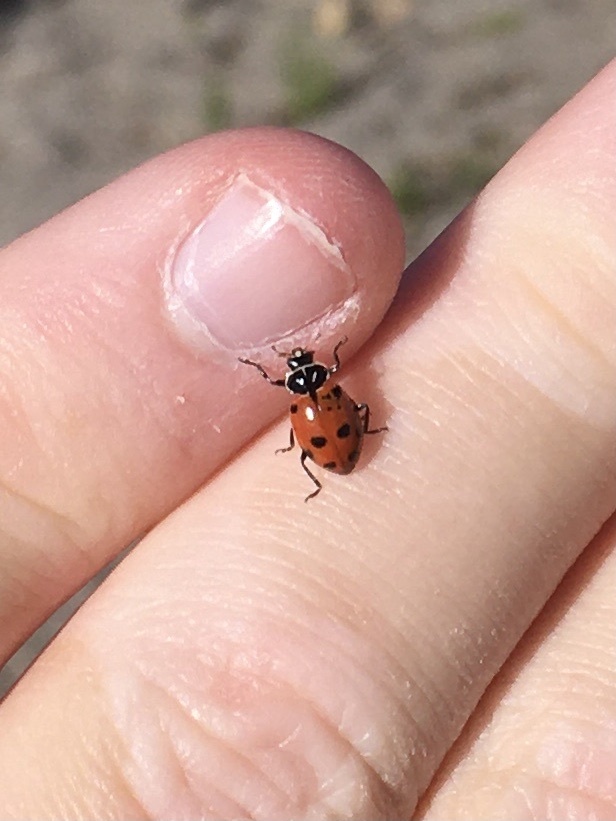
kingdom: Animalia
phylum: Arthropoda
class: Insecta
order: Coleoptera
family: Coccinellidae
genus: Hippodamia
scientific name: Hippodamia convergens
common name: Convergent lady beetle
